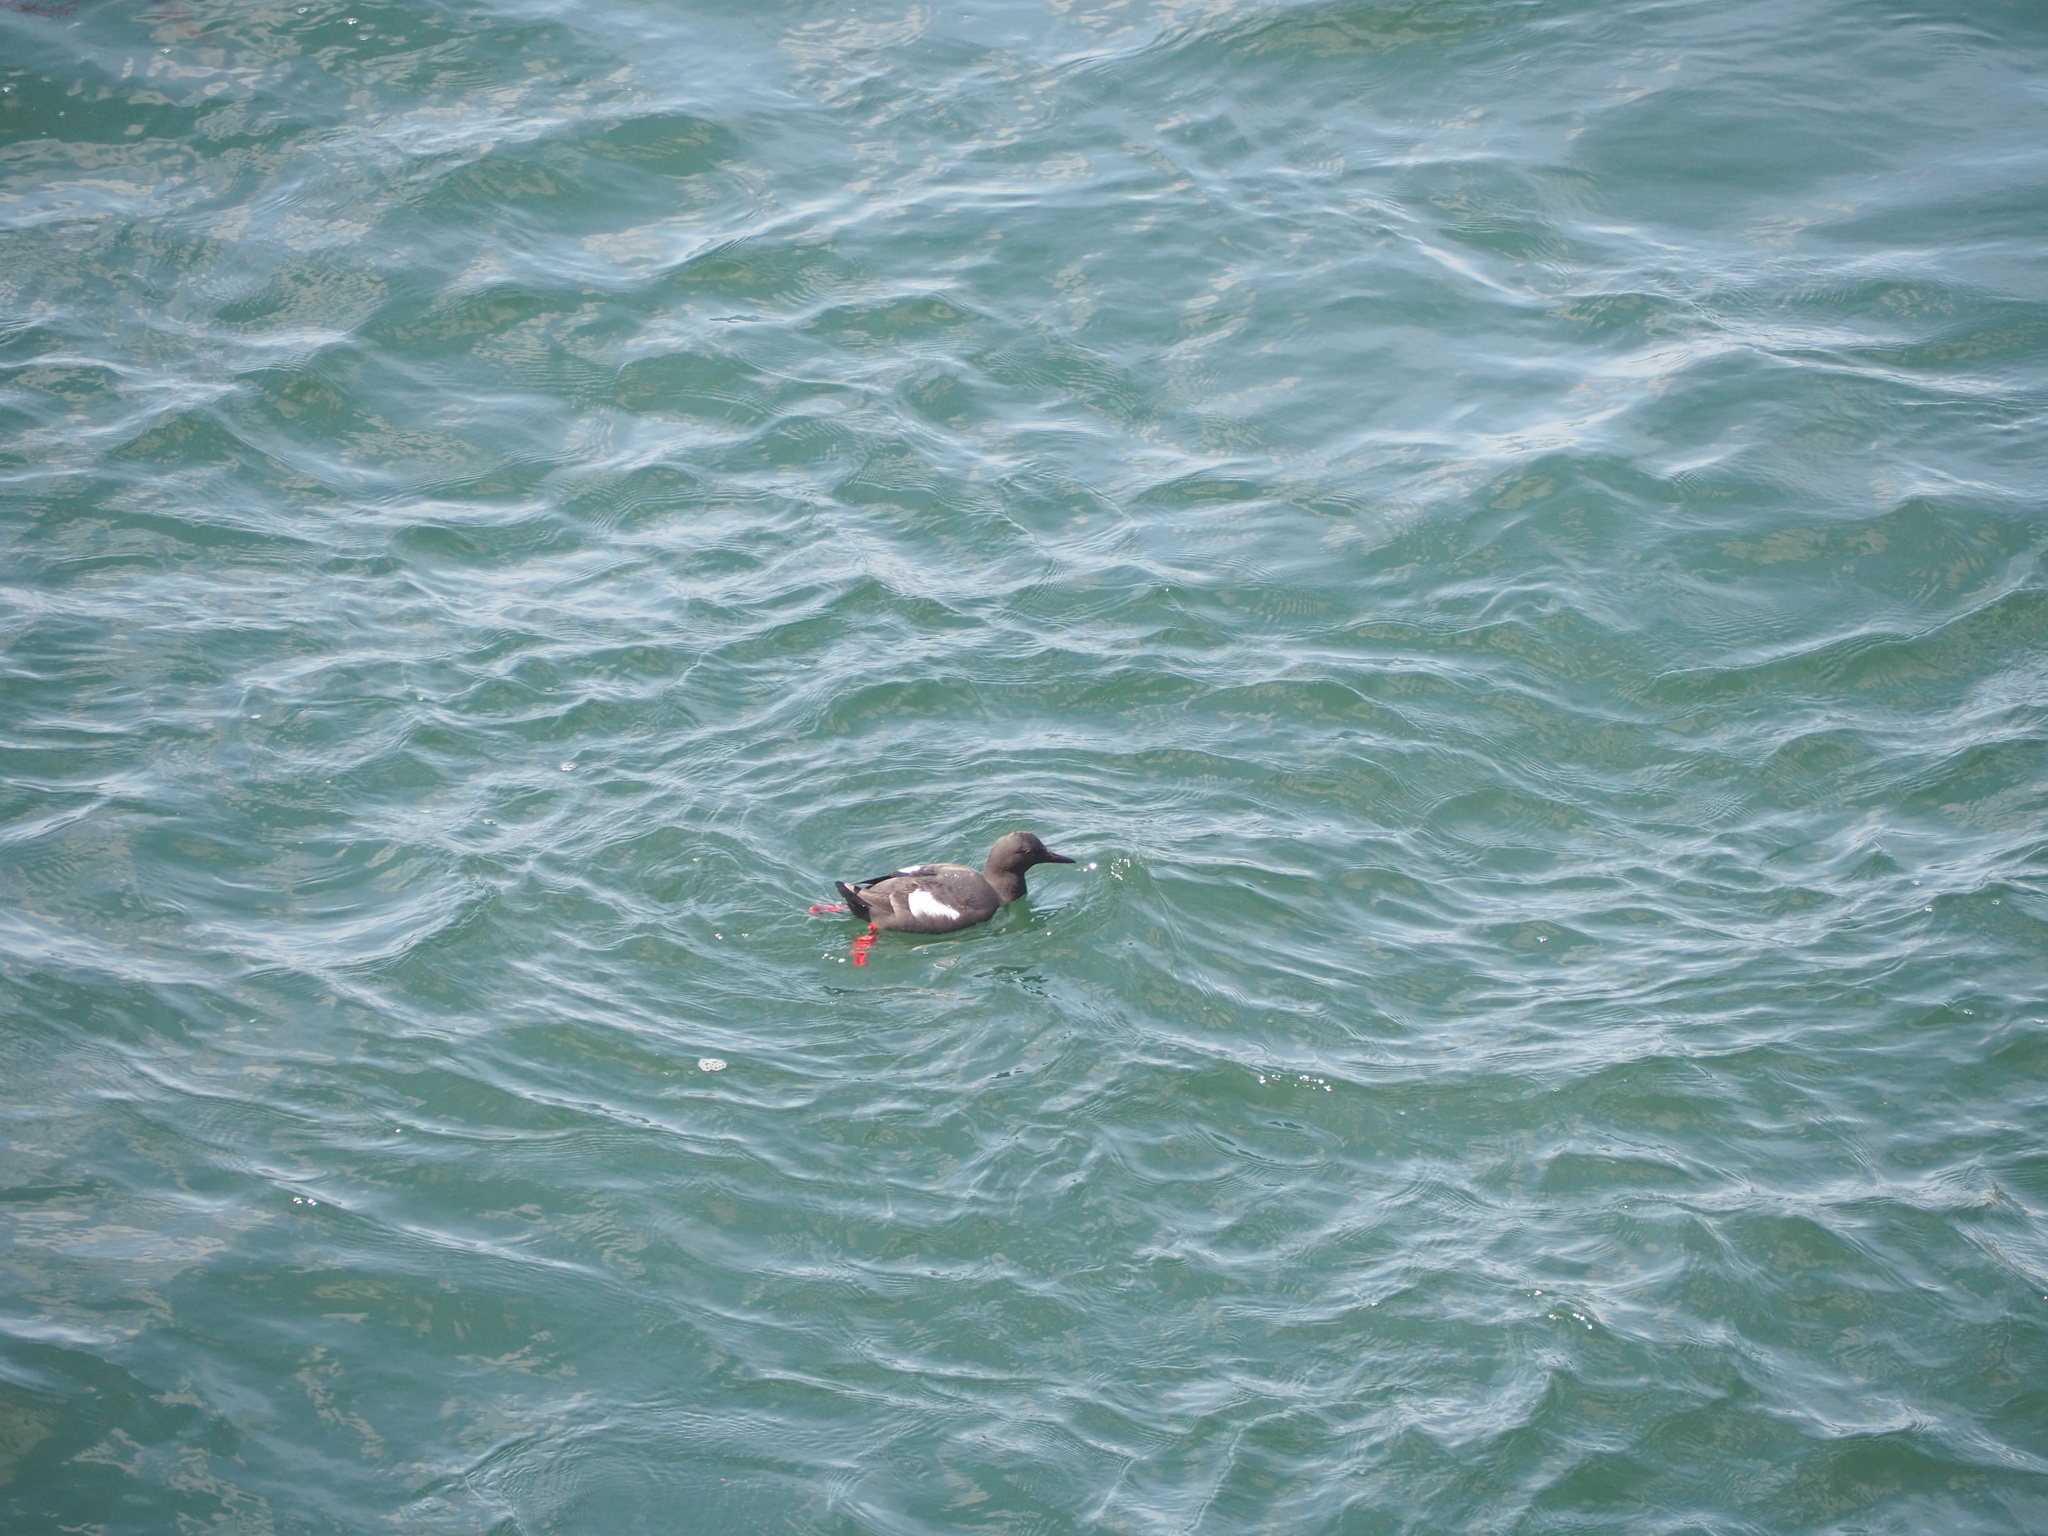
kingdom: Animalia
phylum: Chordata
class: Aves
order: Charadriiformes
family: Alcidae
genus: Cepphus
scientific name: Cepphus columba
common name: Pigeon guillemot
